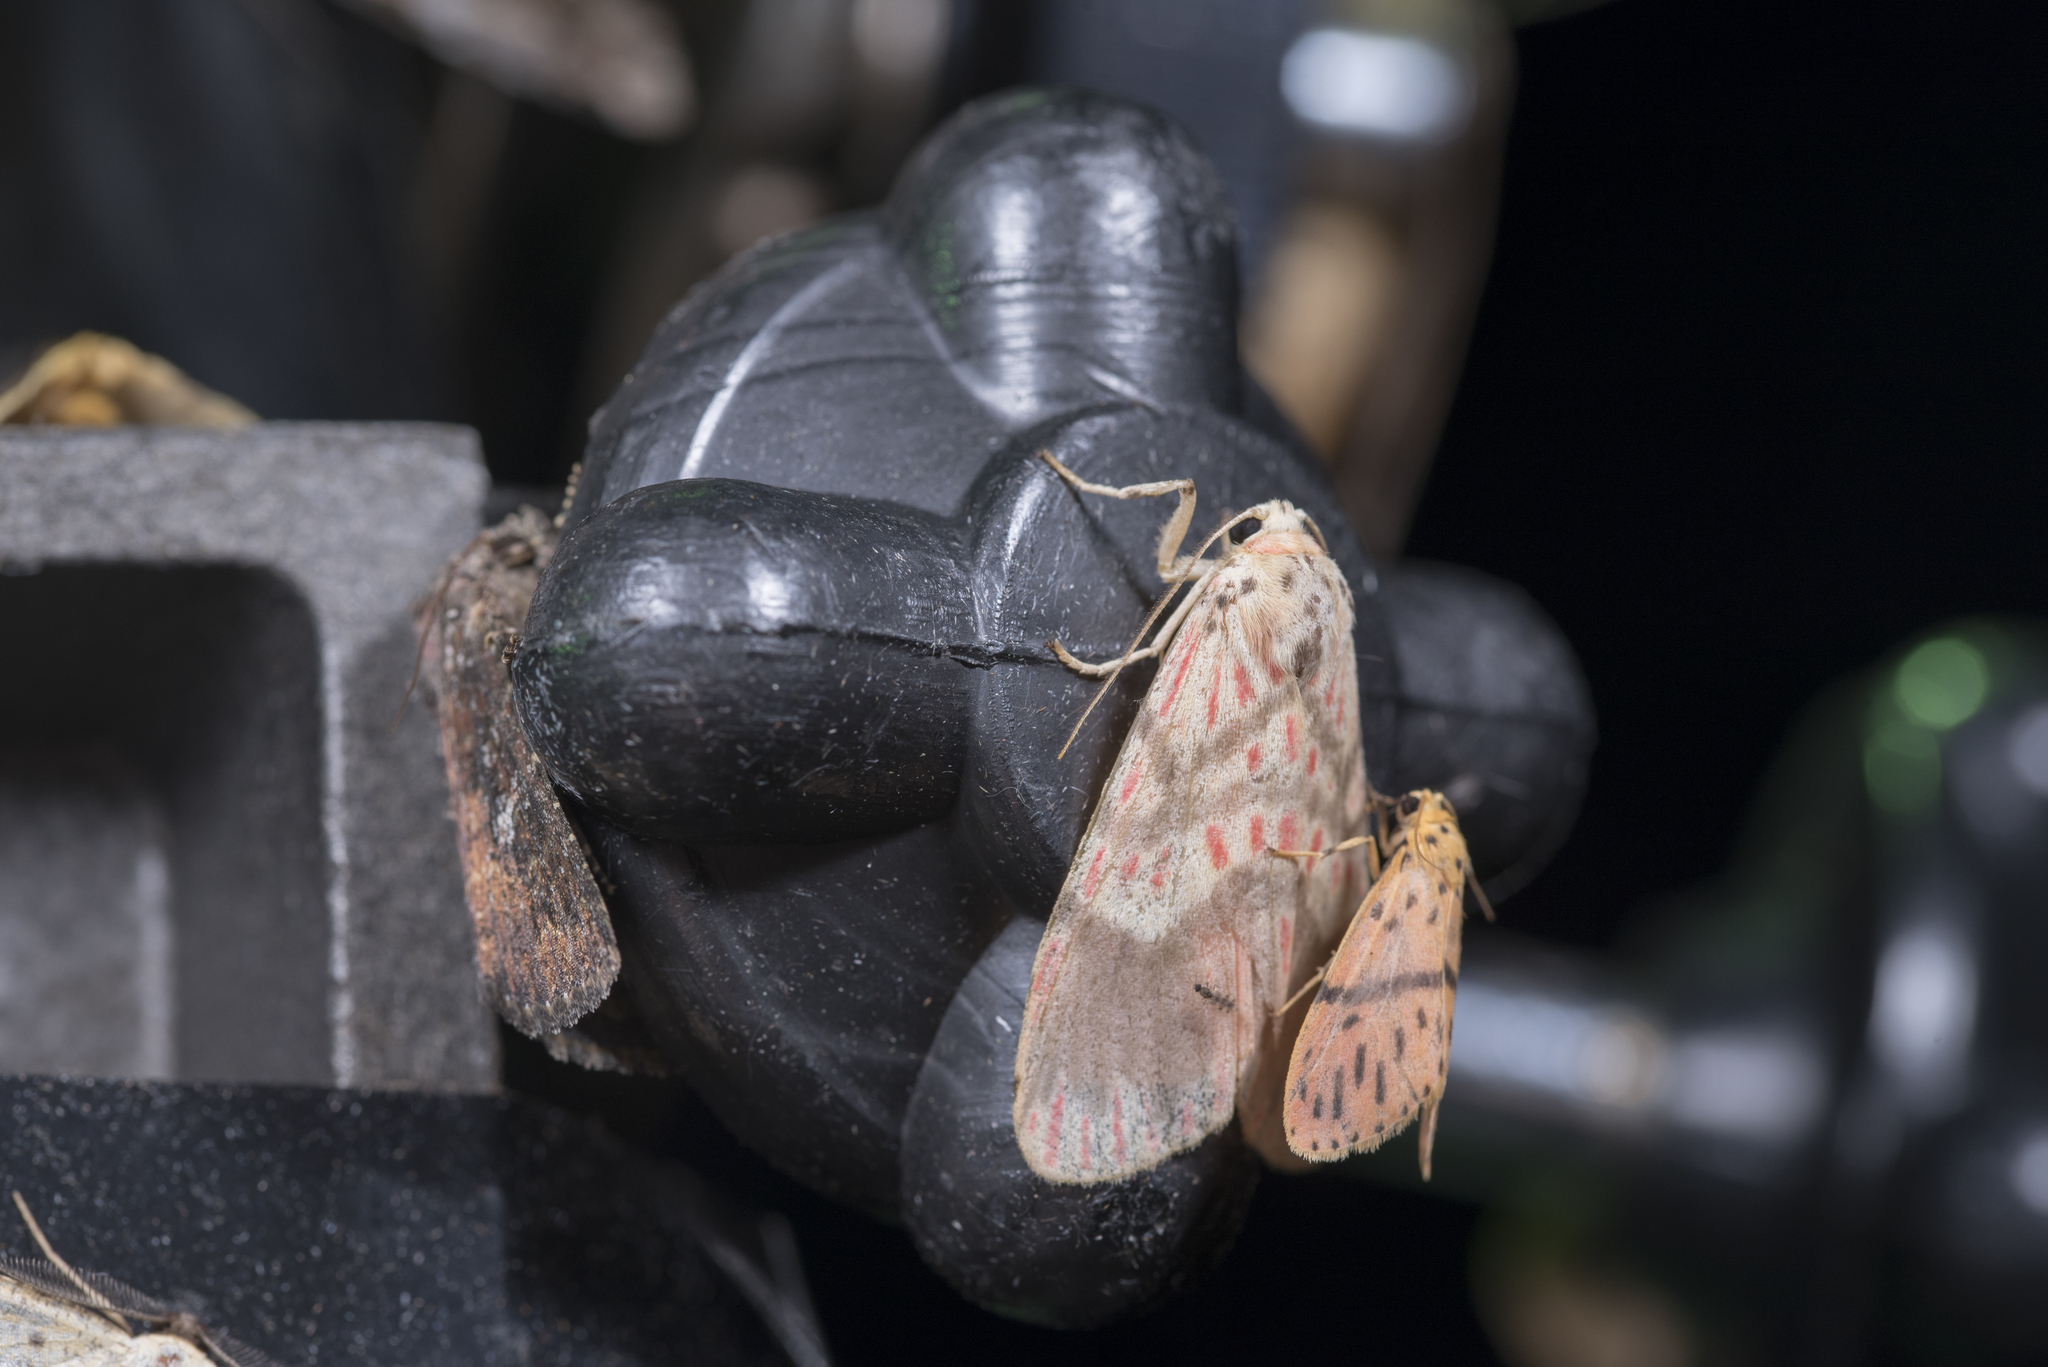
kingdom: Animalia
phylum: Arthropoda
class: Insecta
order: Lepidoptera
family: Erebidae
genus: Barsine
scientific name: Barsine fuscozonata
